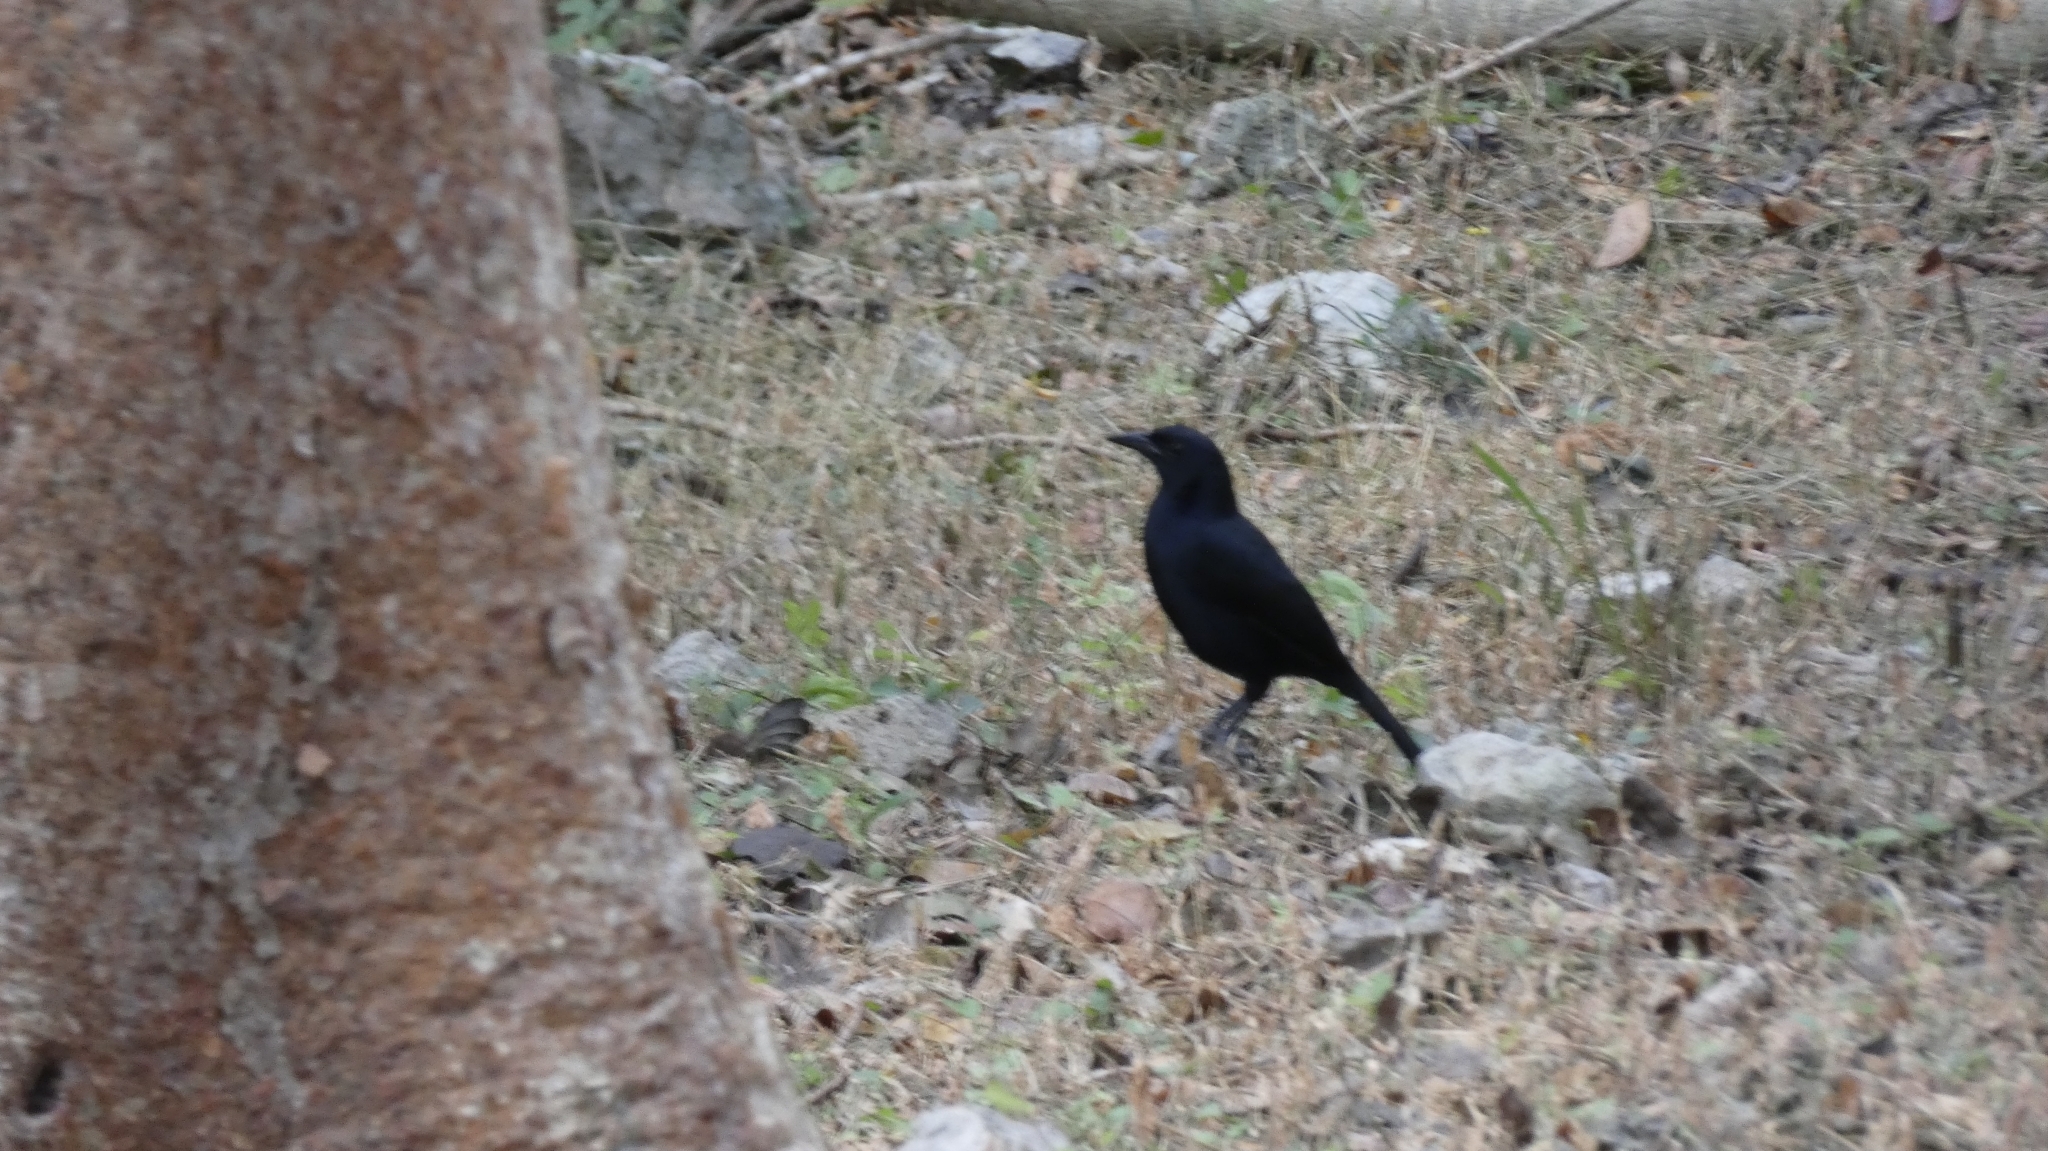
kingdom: Animalia
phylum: Chordata
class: Aves
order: Passeriformes
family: Icteridae
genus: Dives
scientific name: Dives dives
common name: Melodious blackbird
